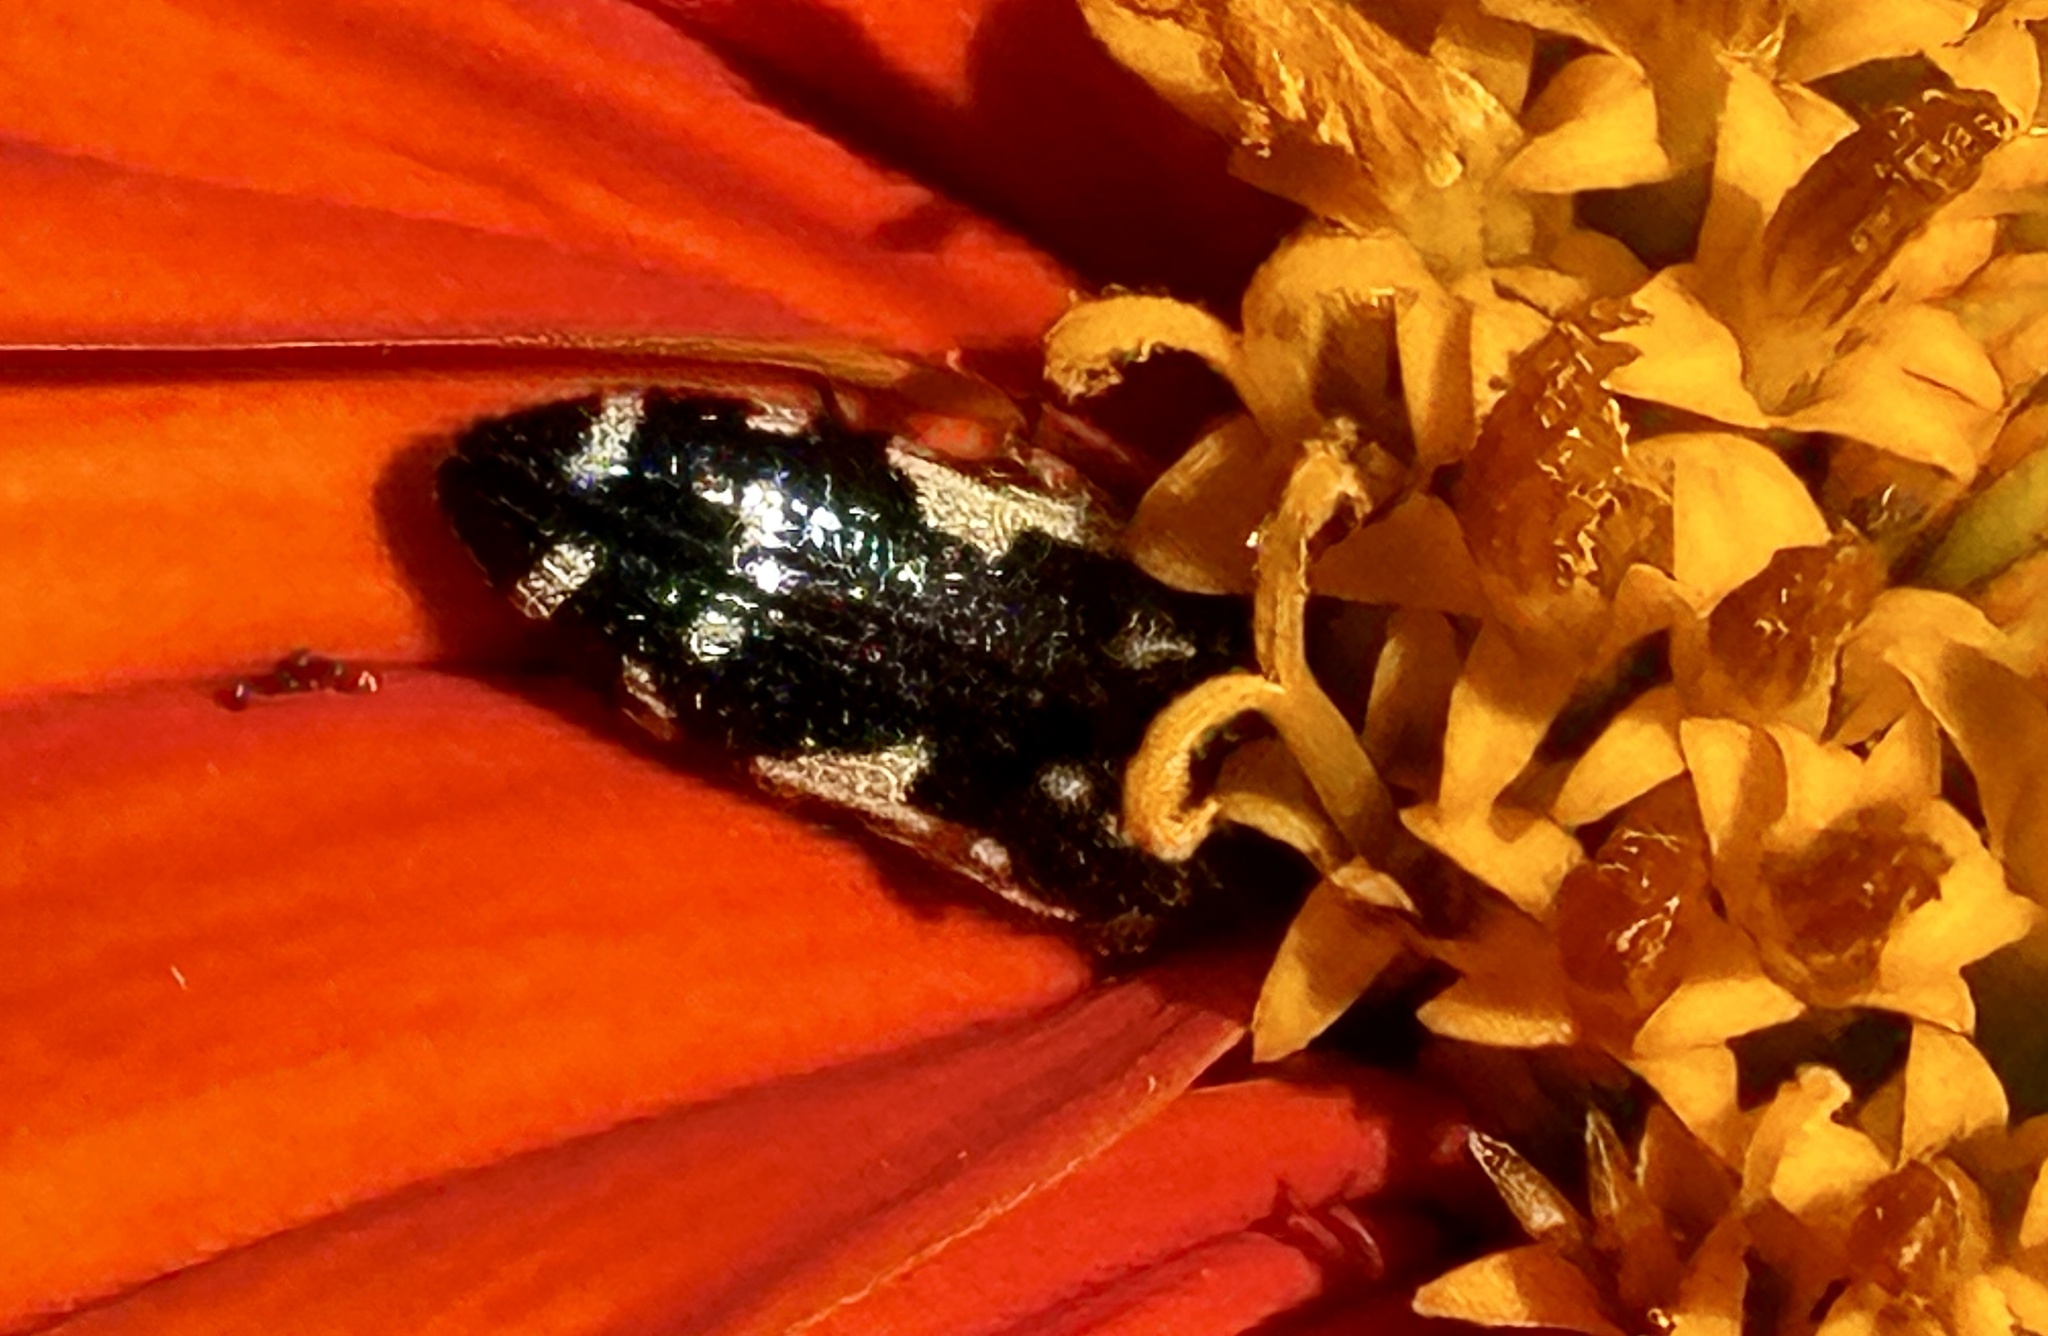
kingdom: Animalia
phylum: Arthropoda
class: Insecta
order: Coleoptera
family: Buprestidae
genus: Acmaeodera
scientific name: Acmaeodera pulchella
